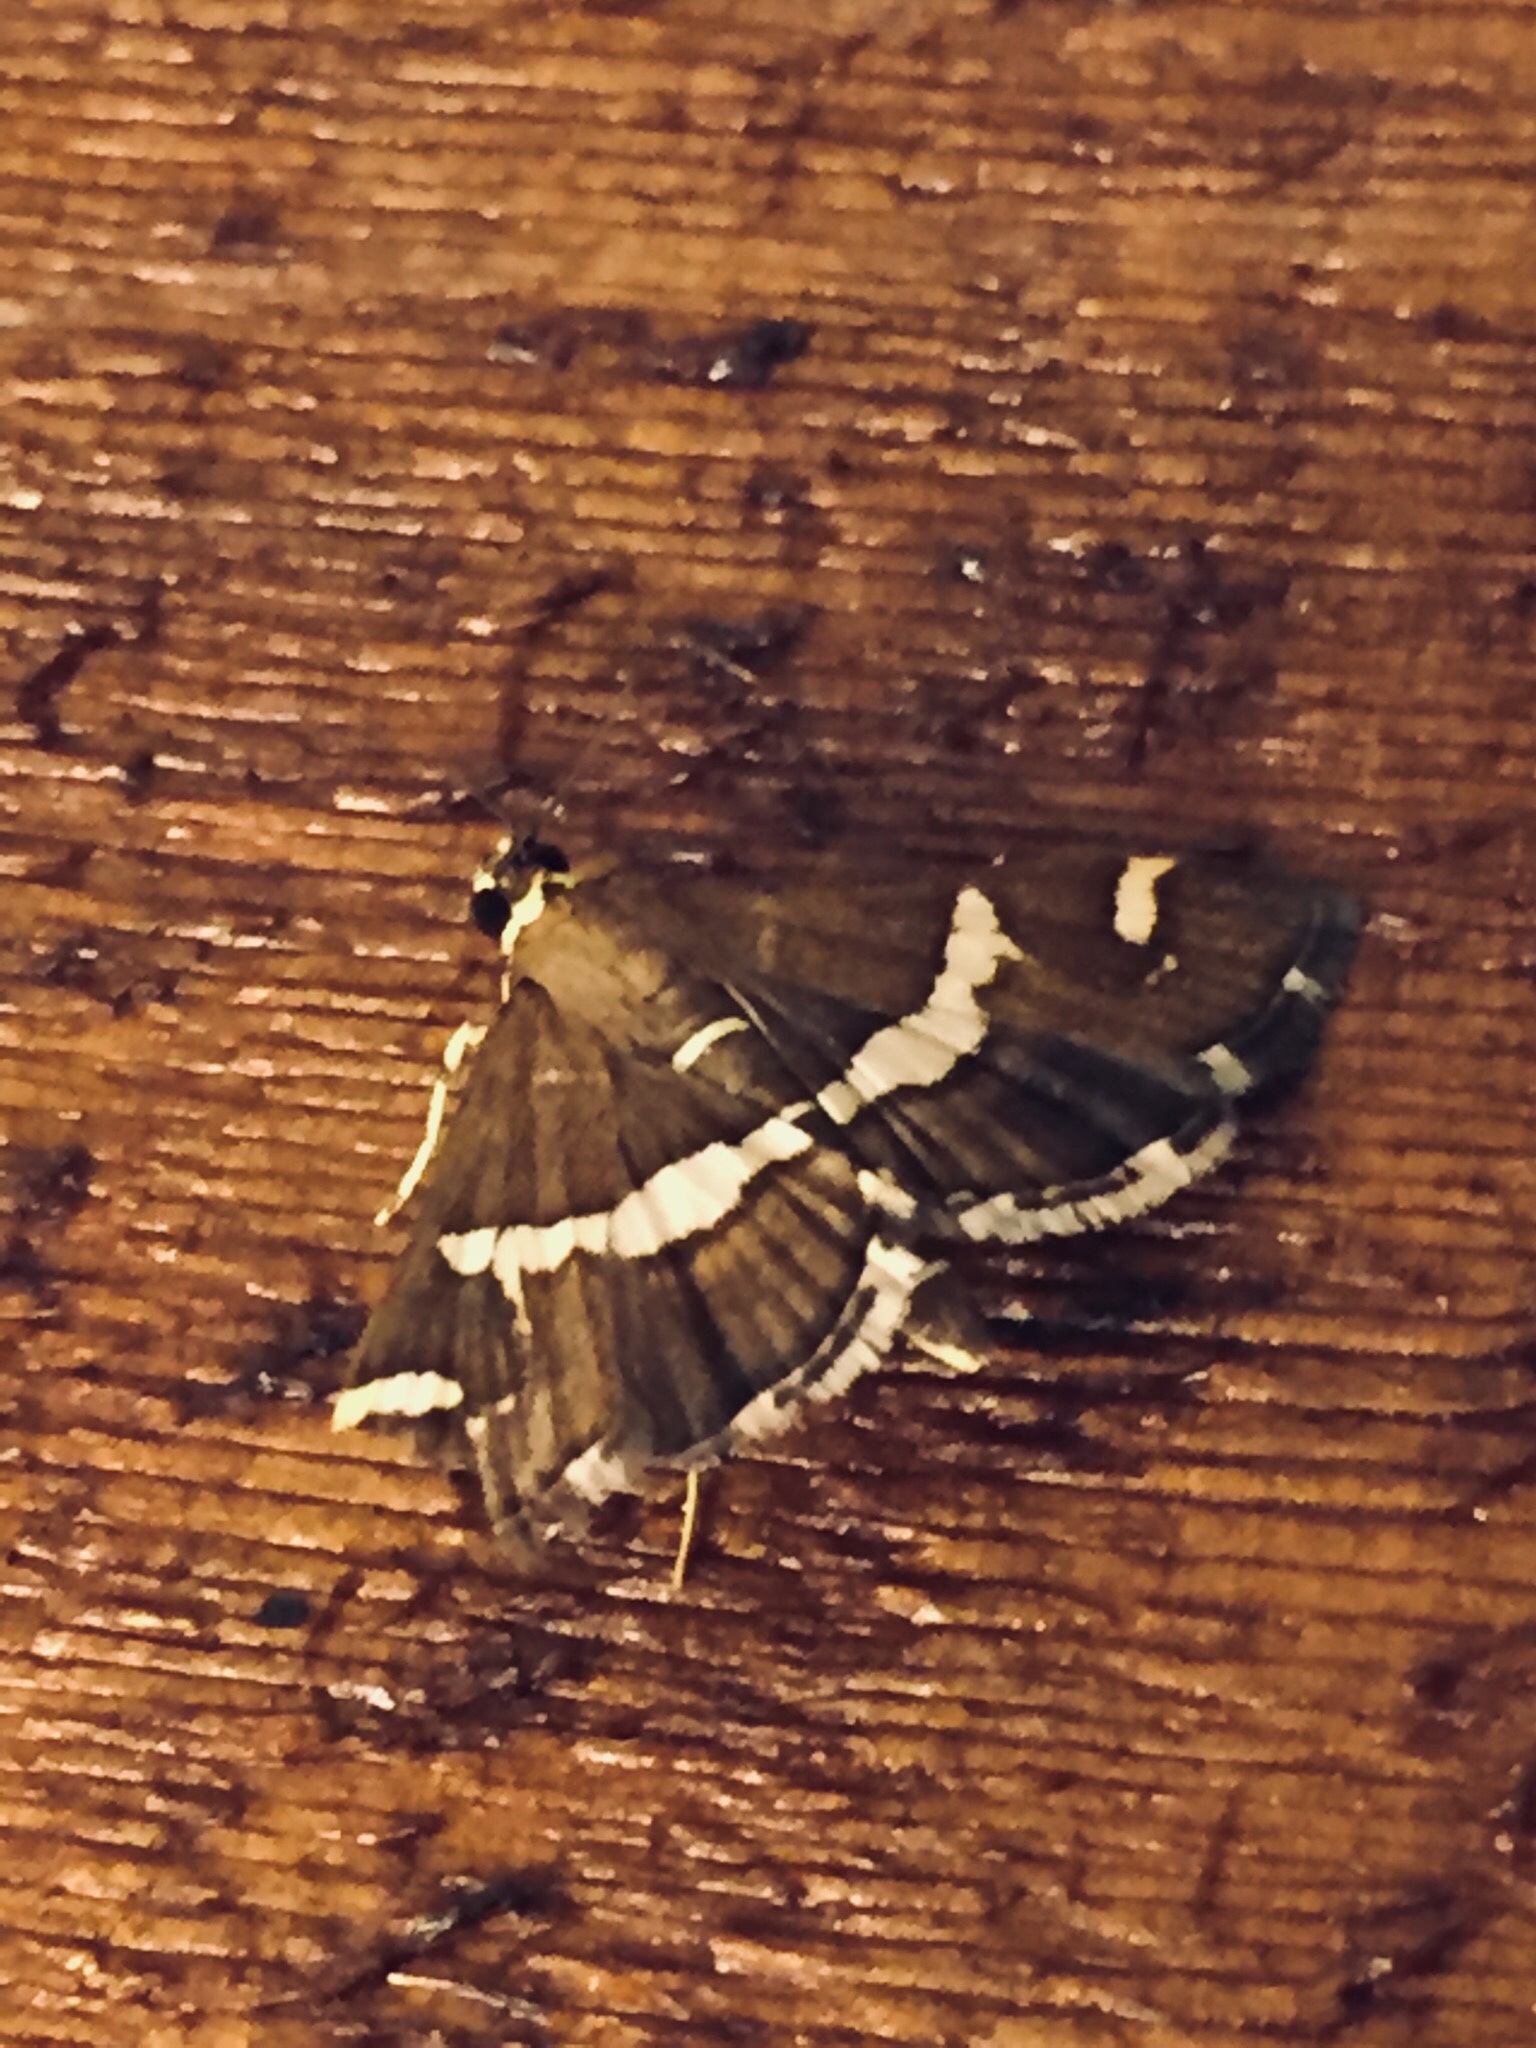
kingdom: Animalia
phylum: Arthropoda
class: Insecta
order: Lepidoptera
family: Crambidae
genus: Spoladea
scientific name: Spoladea recurvalis
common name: Beet webworm moth
